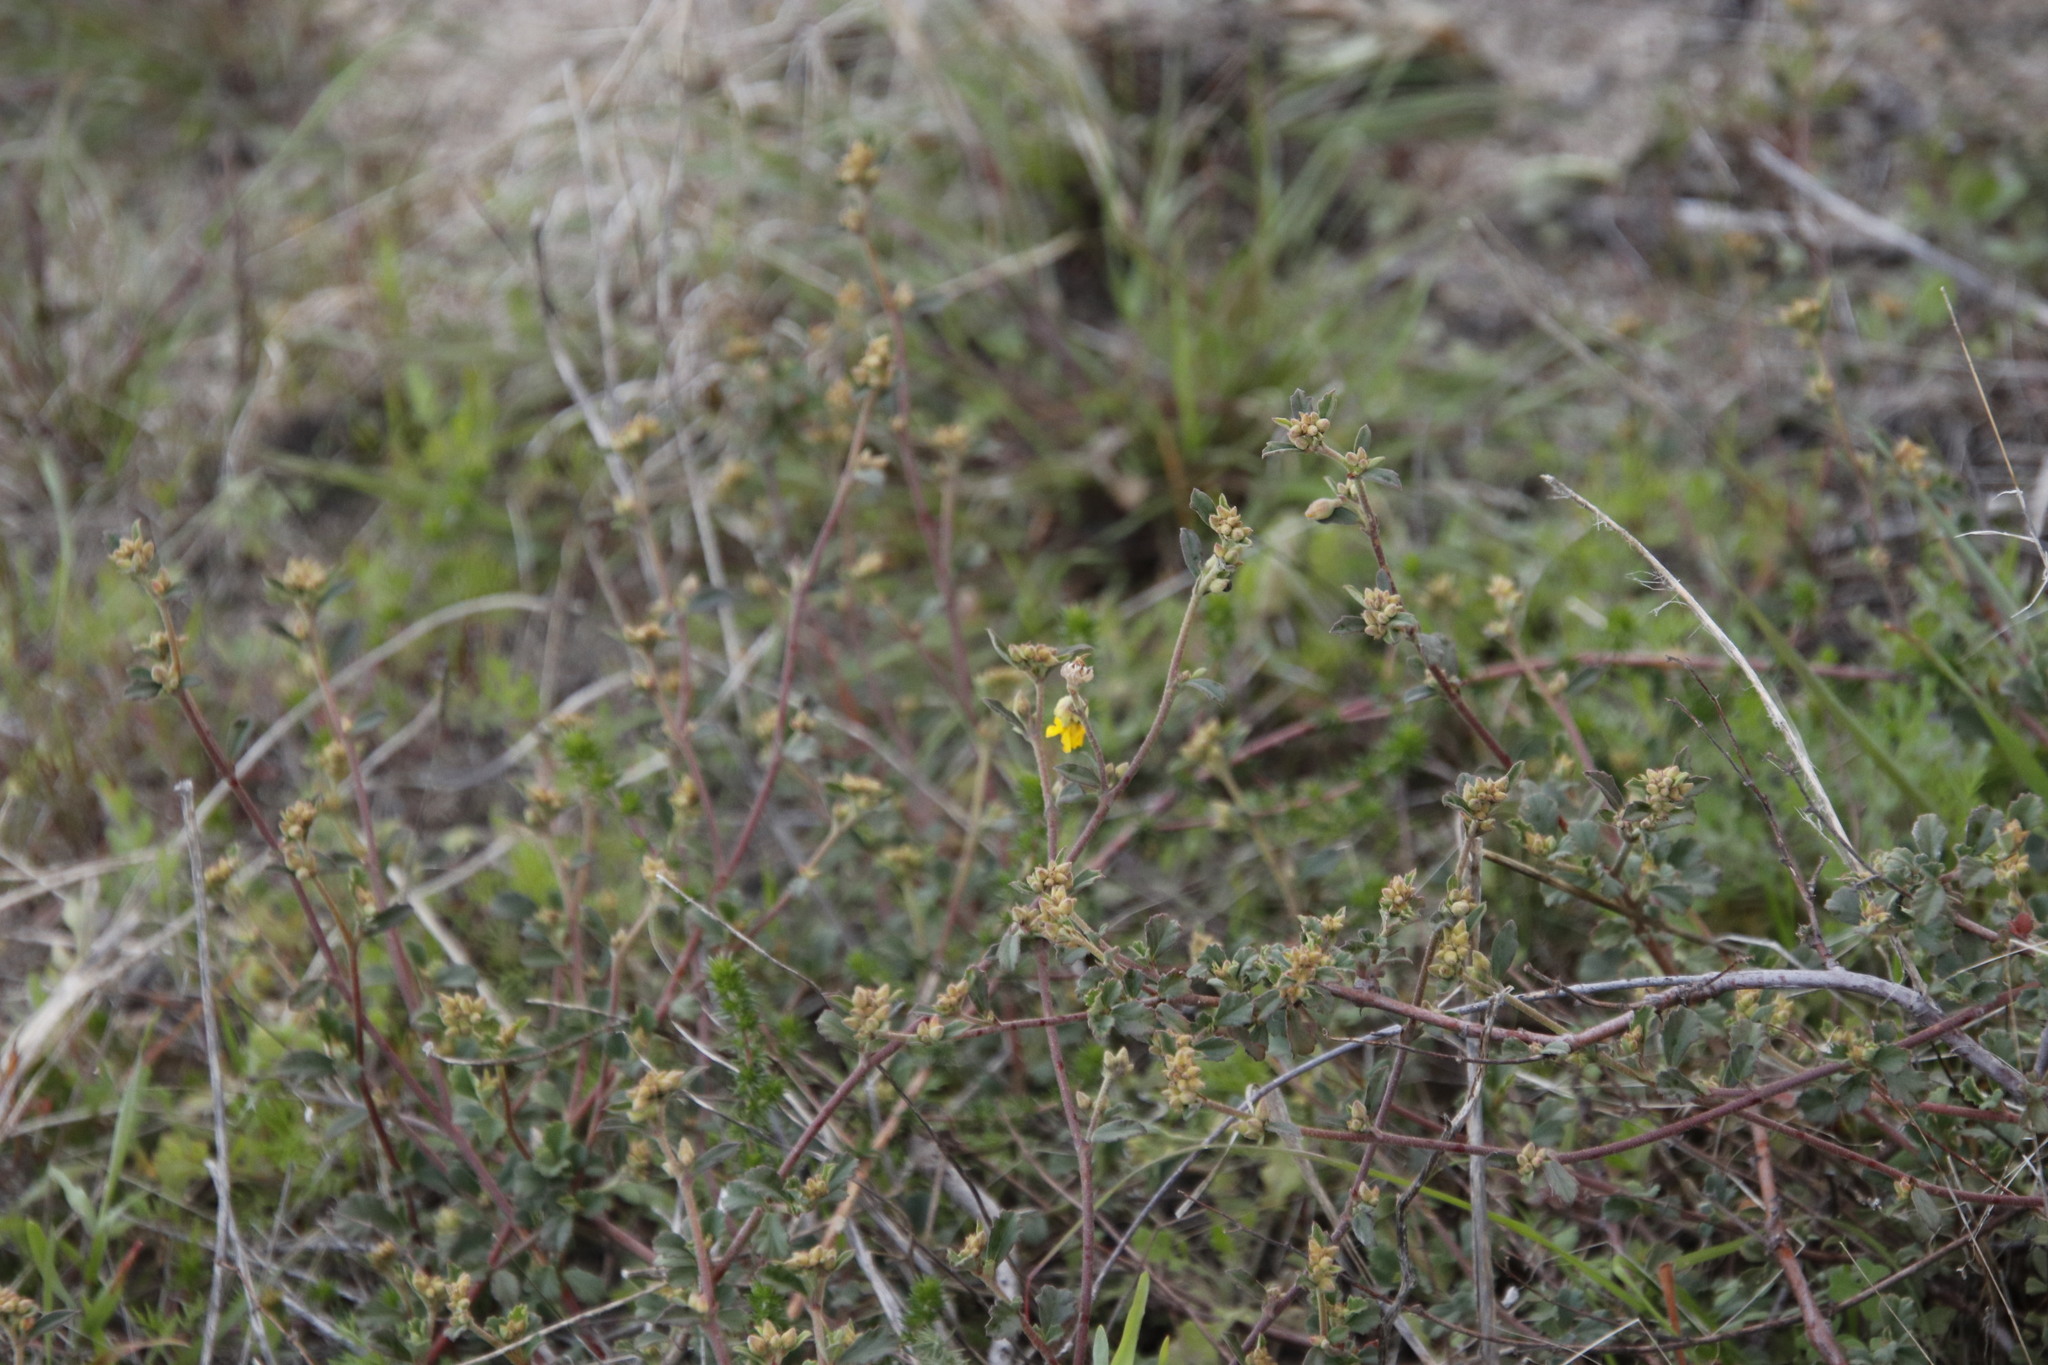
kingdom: Plantae
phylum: Tracheophyta
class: Magnoliopsida
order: Malvales
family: Malvaceae
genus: Hermannia
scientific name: Hermannia multiflora
